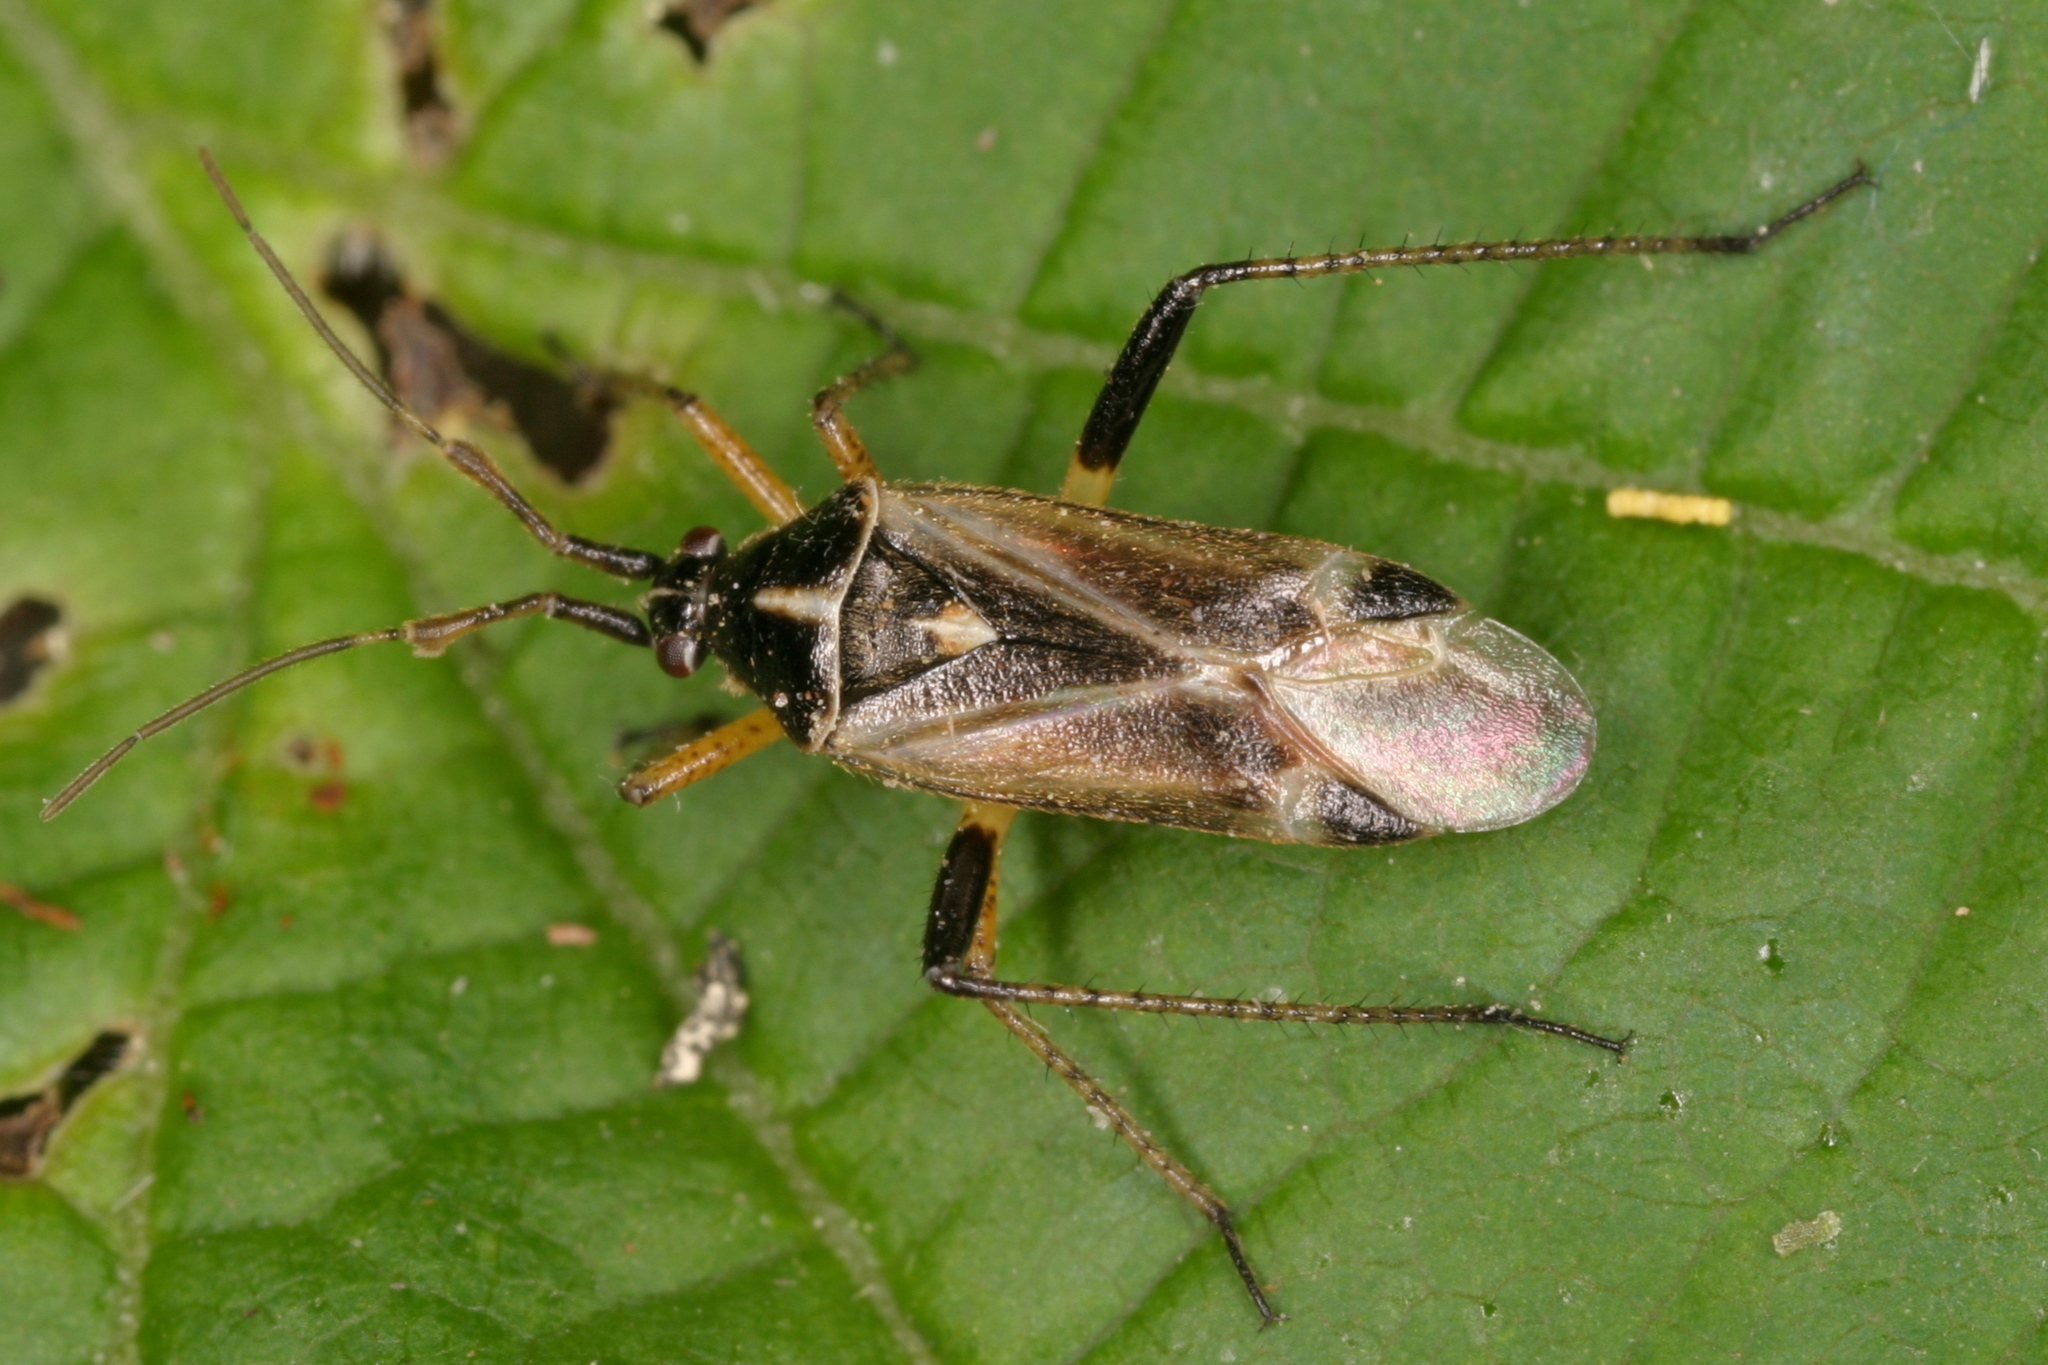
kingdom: Animalia
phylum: Arthropoda
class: Insecta
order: Hemiptera
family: Miridae
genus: Harpocera
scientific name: Harpocera thoracica
